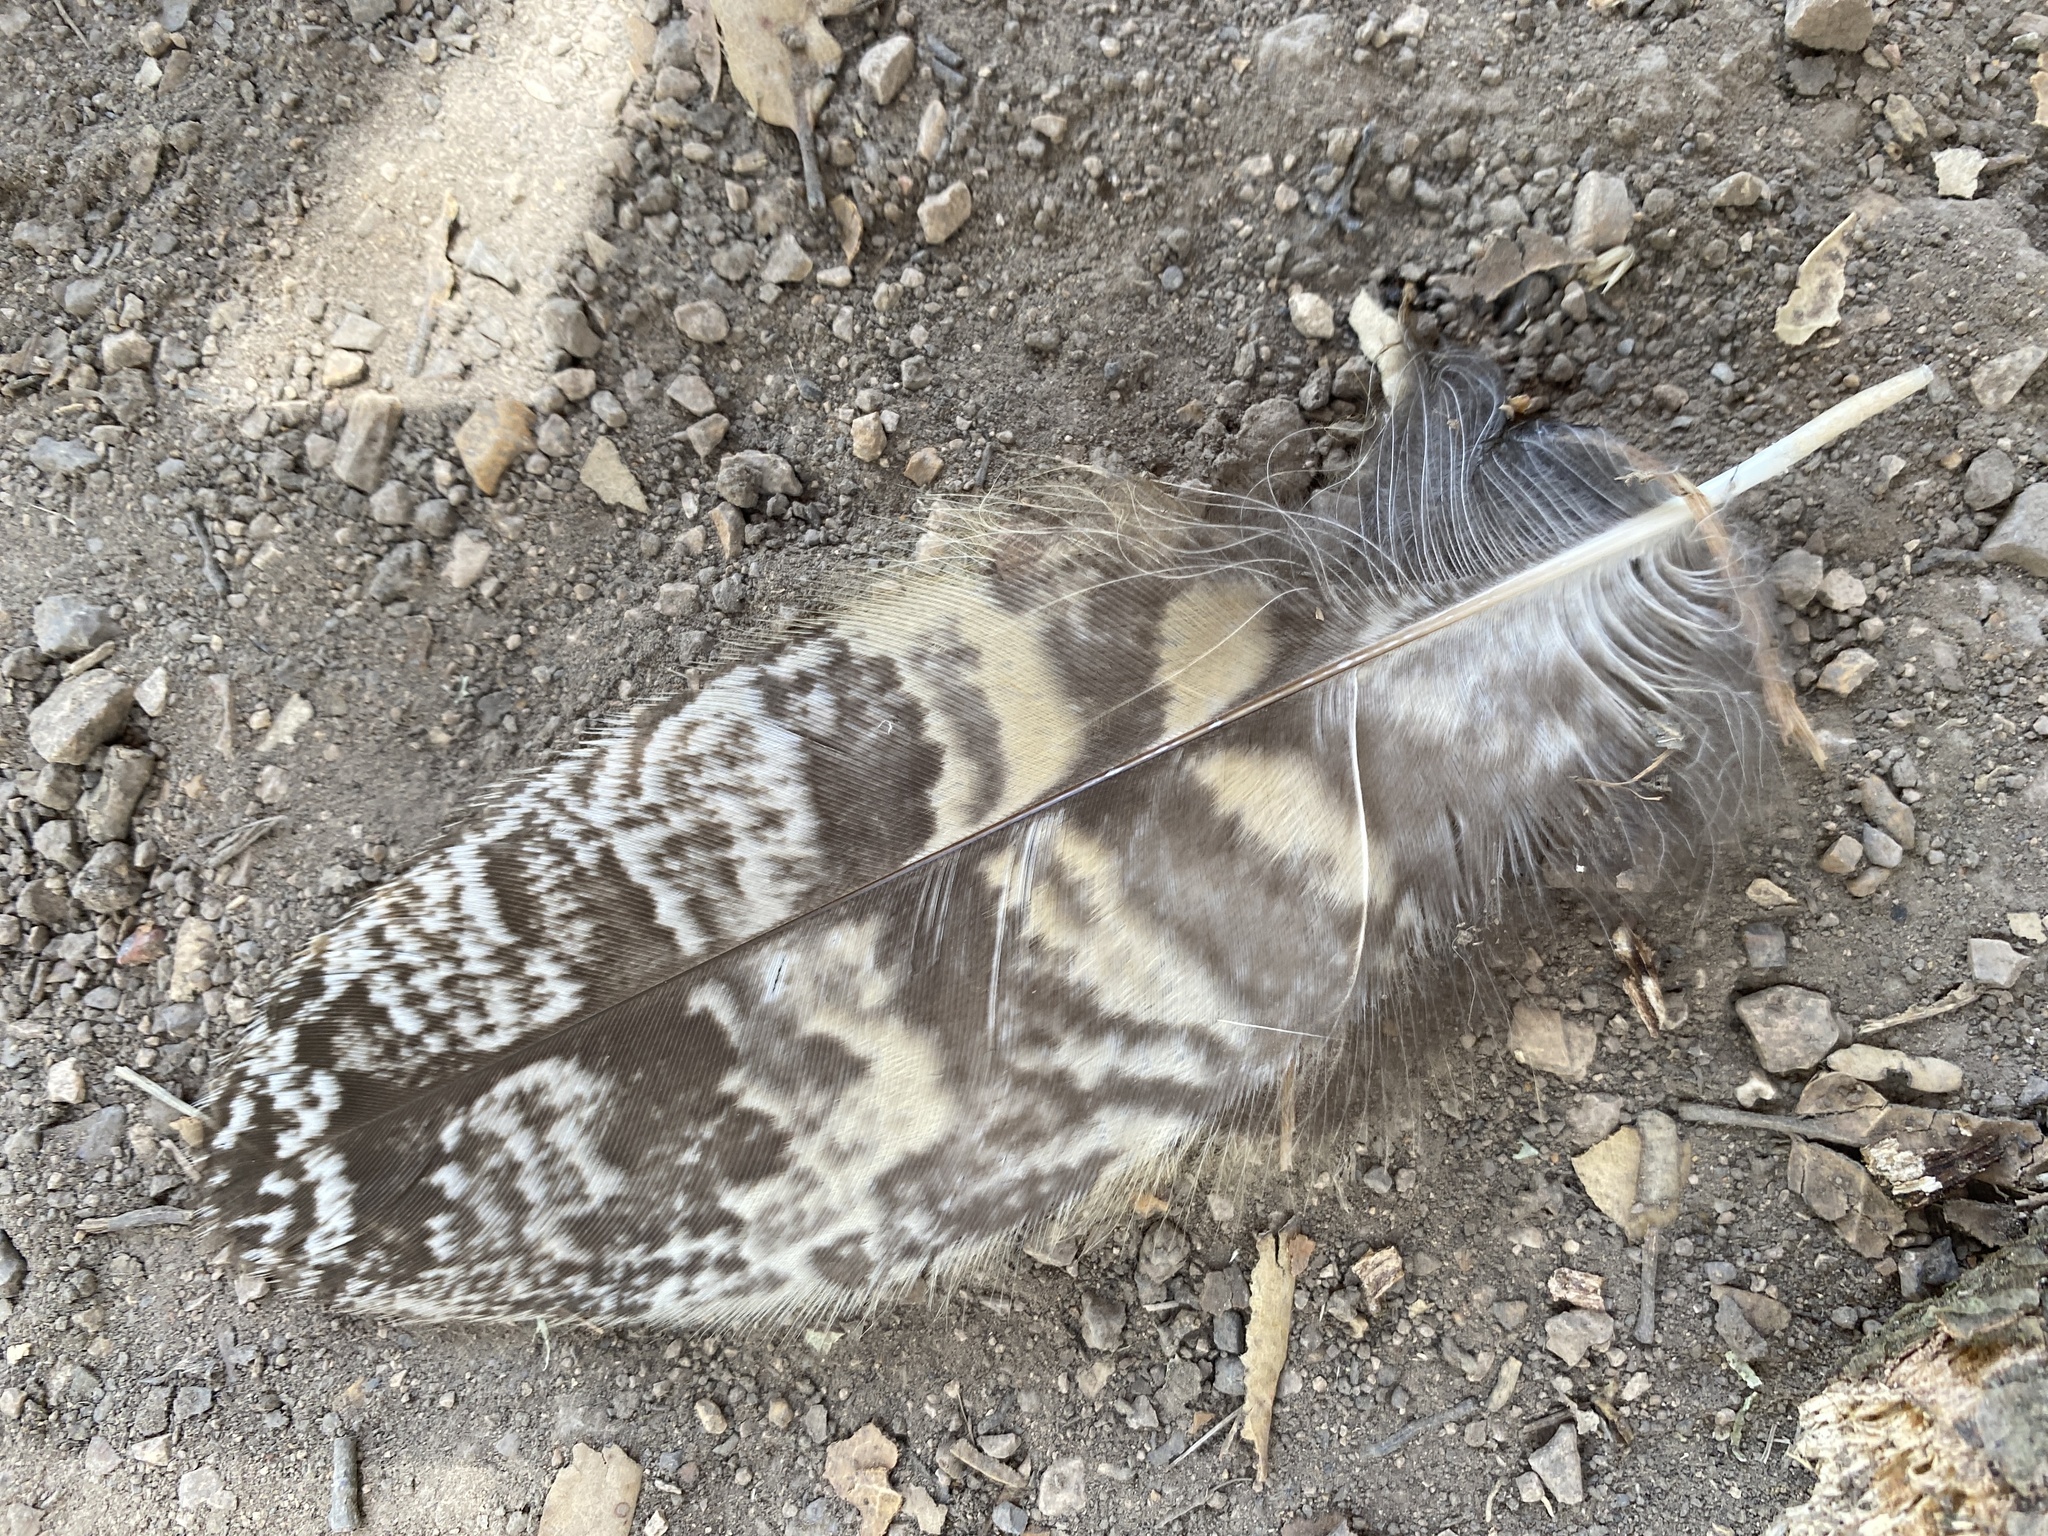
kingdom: Animalia
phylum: Chordata
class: Aves
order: Strigiformes
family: Strigidae
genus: Bubo
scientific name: Bubo virginianus
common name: Great horned owl
